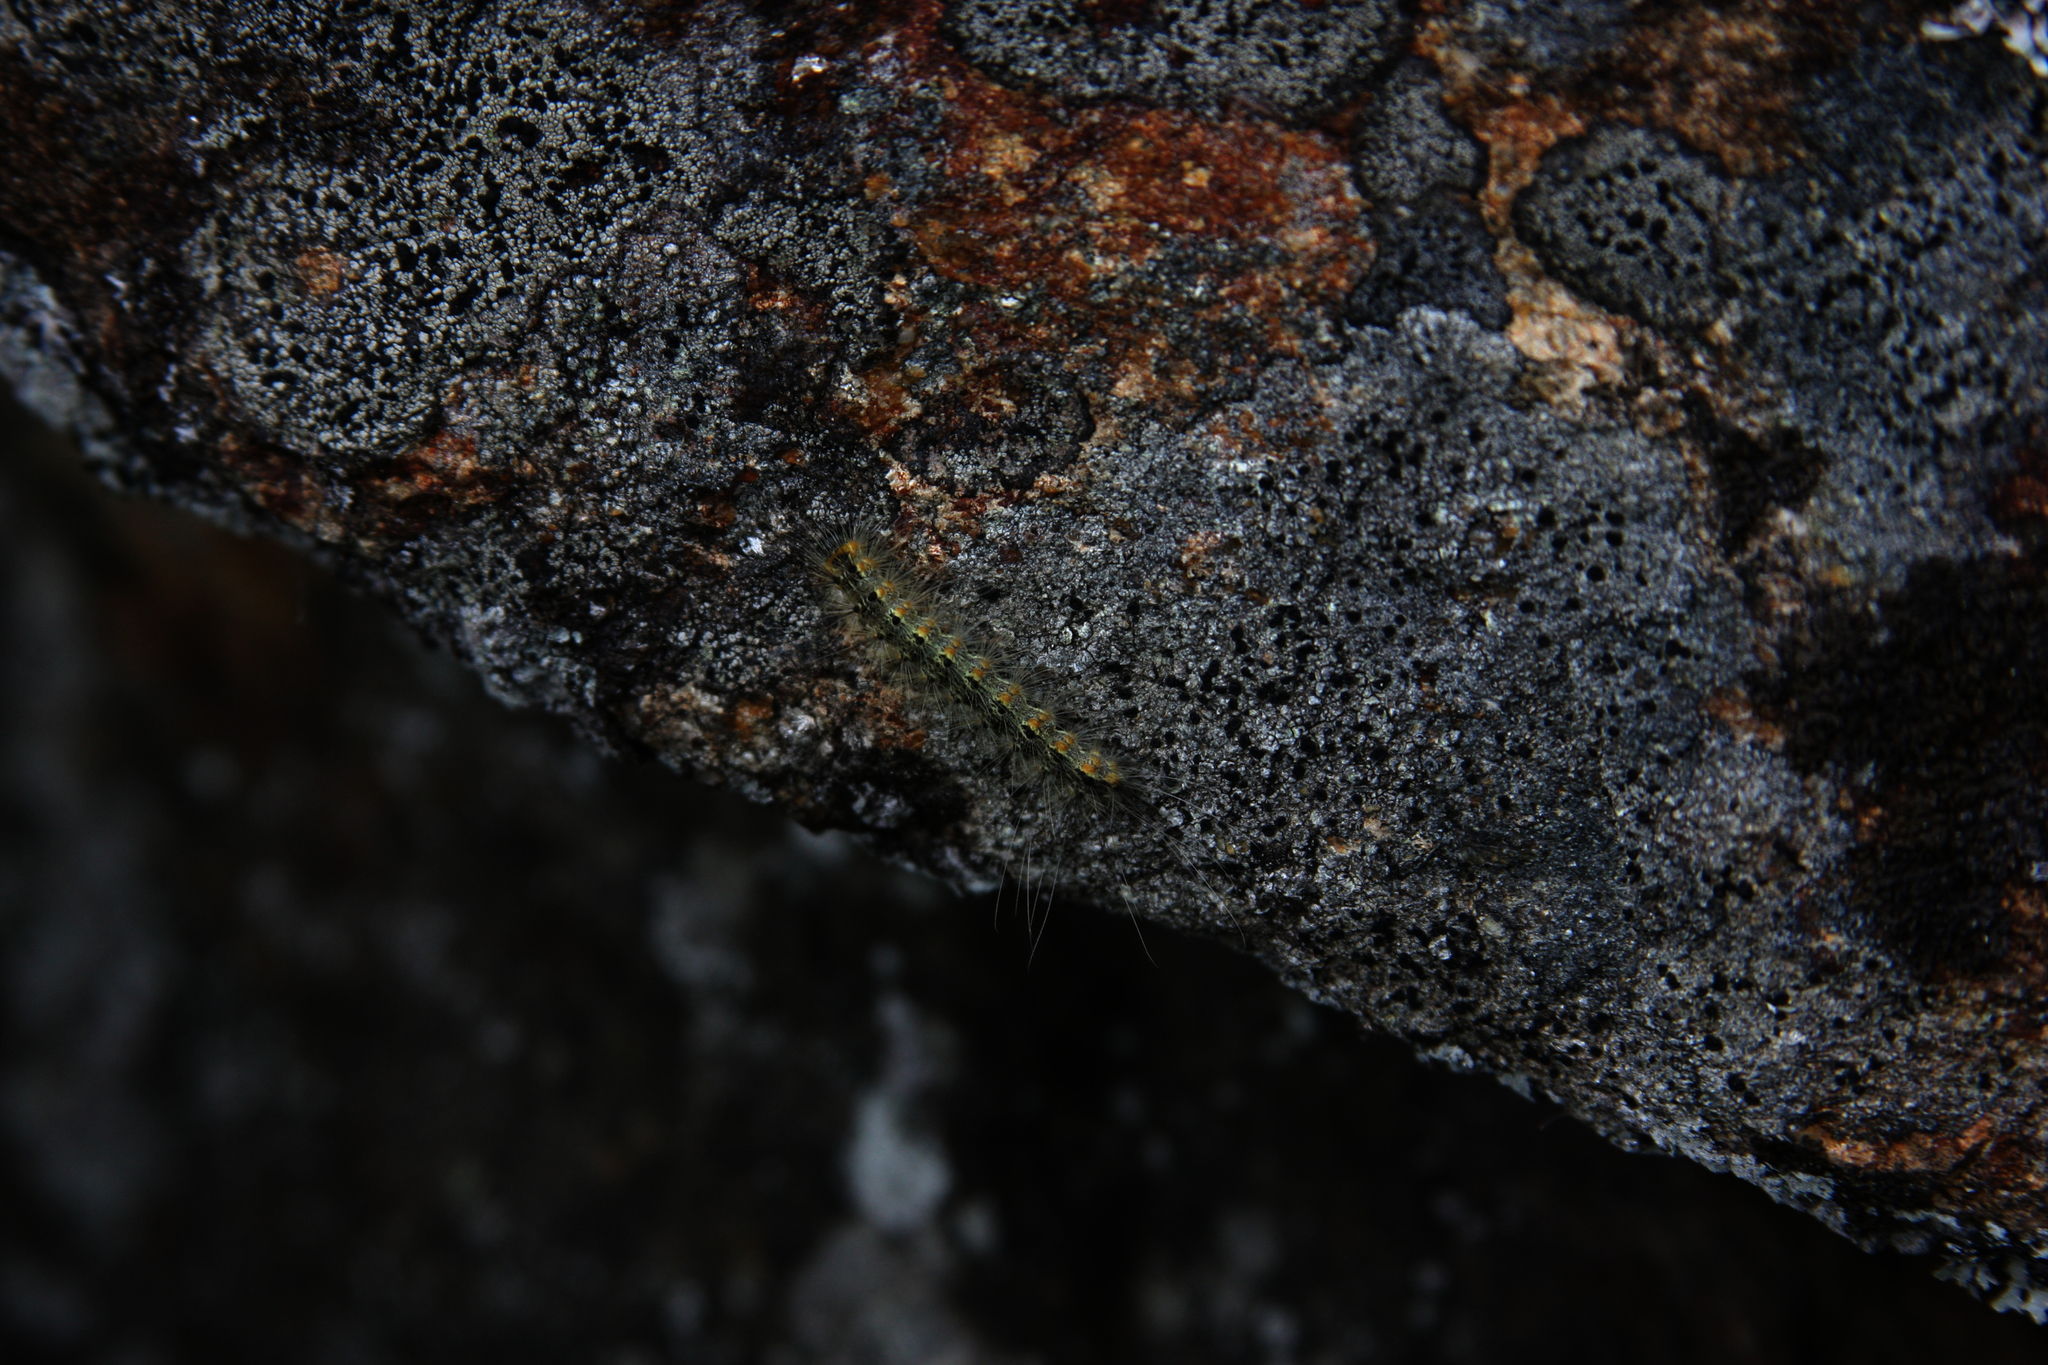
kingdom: Animalia
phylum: Arthropoda
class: Insecta
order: Lepidoptera
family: Erebidae
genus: Hyphantria
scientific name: Hyphantria cunea
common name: American white moth
